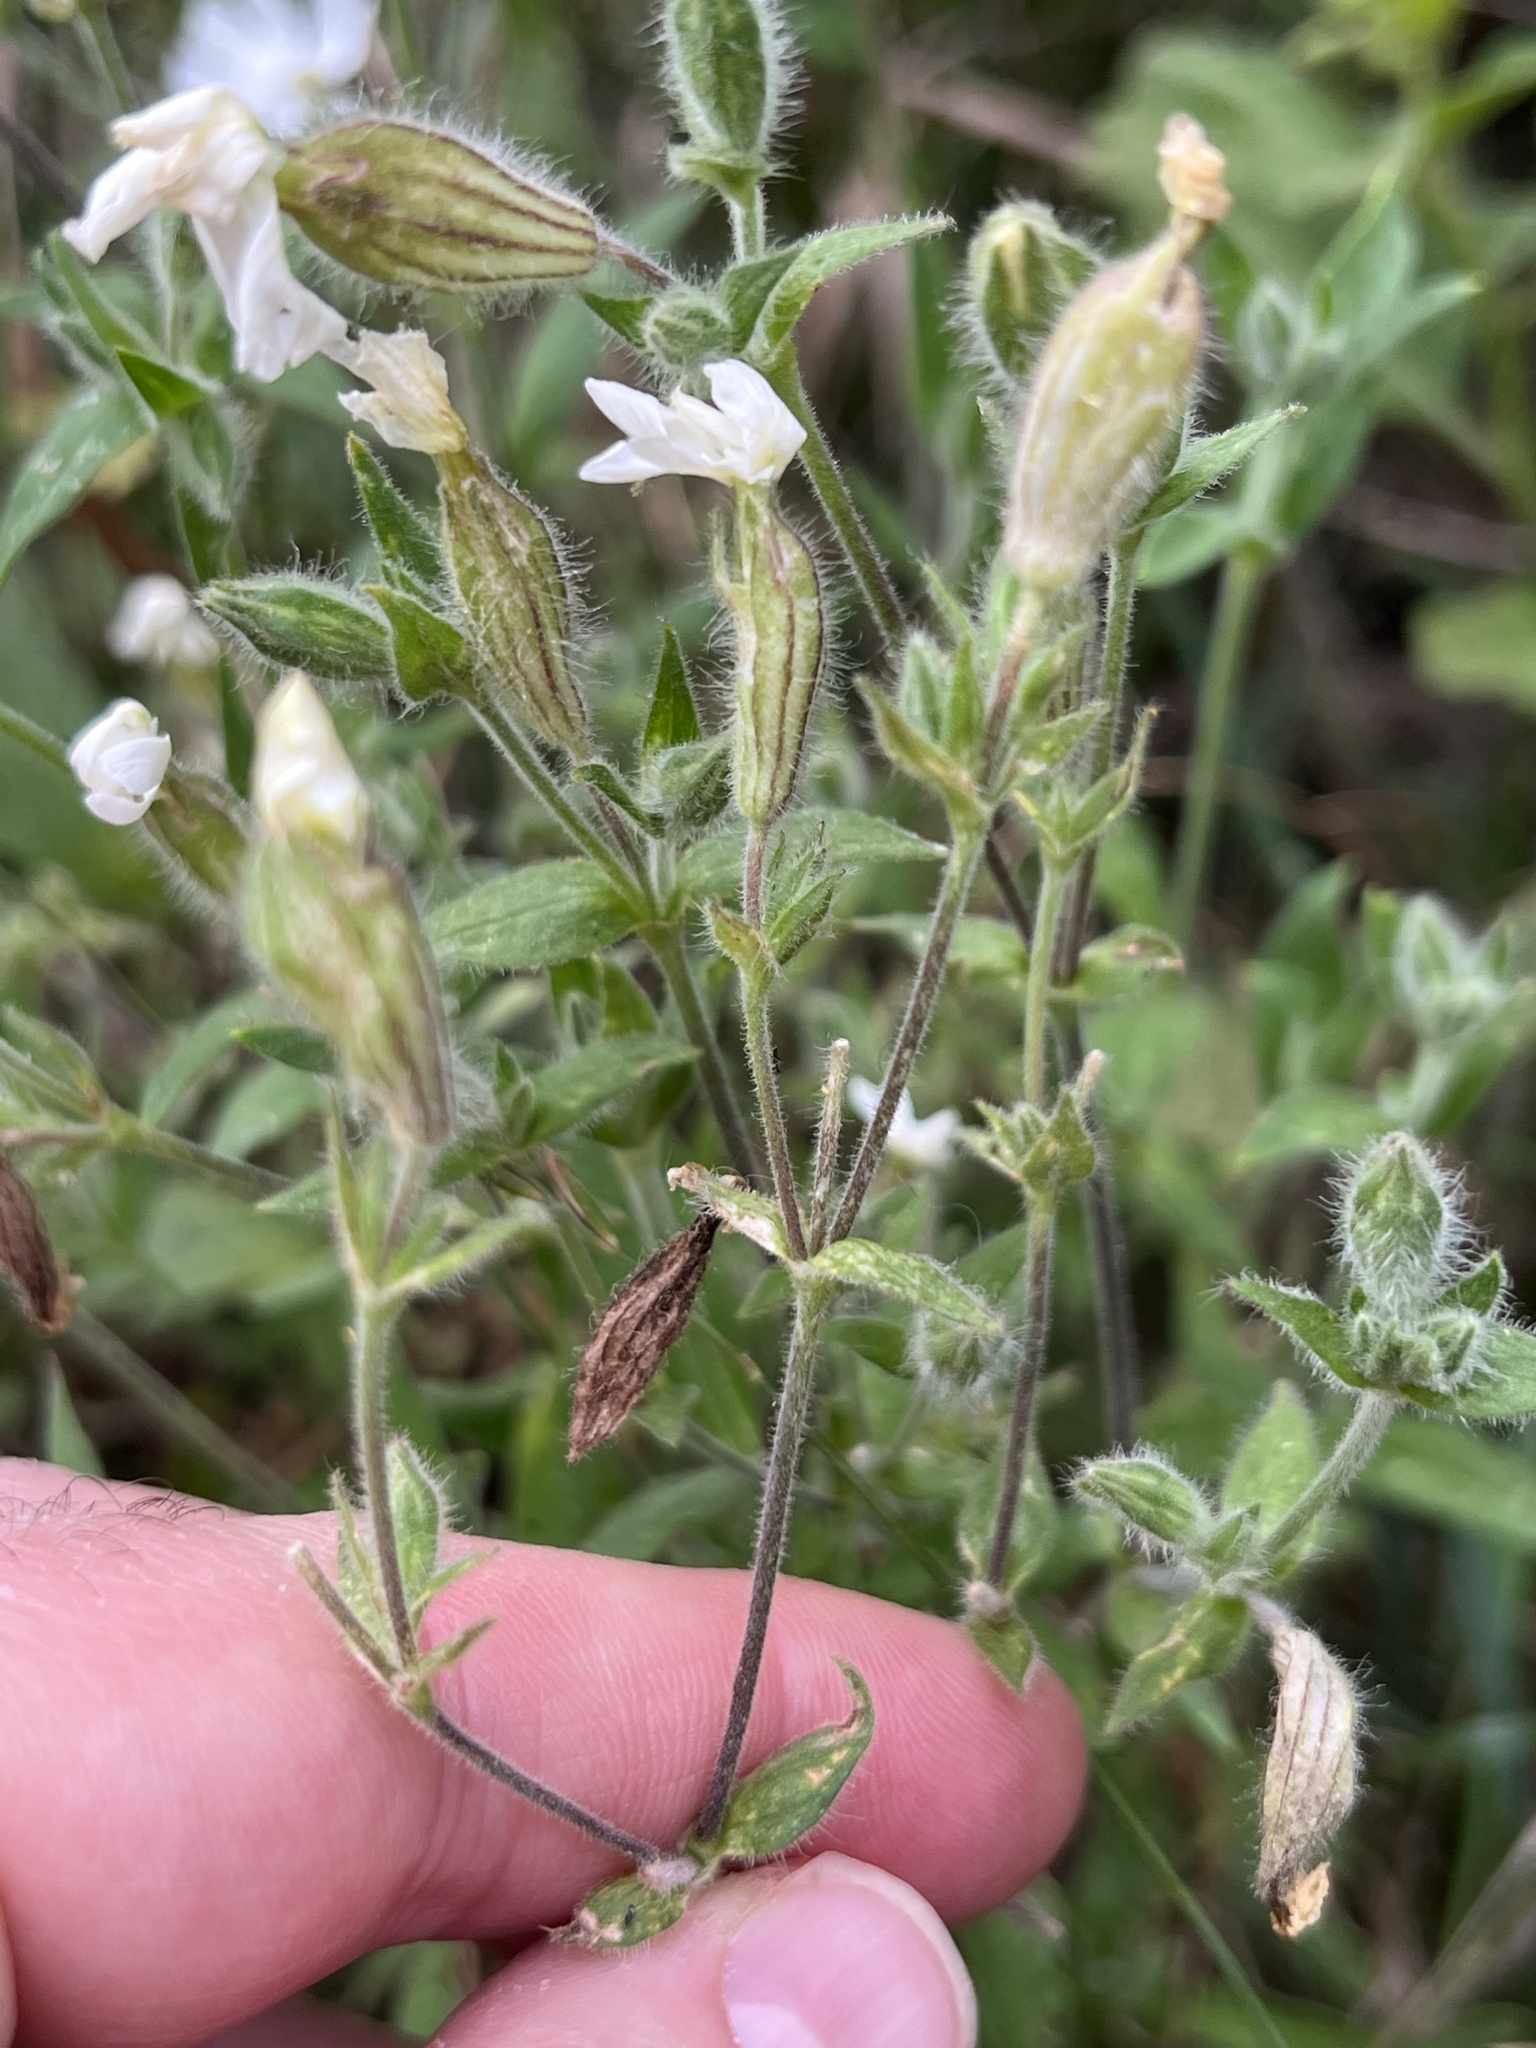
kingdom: Plantae
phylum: Tracheophyta
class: Magnoliopsida
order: Caryophyllales
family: Caryophyllaceae
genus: Silene
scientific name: Silene latifolia
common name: White campion
